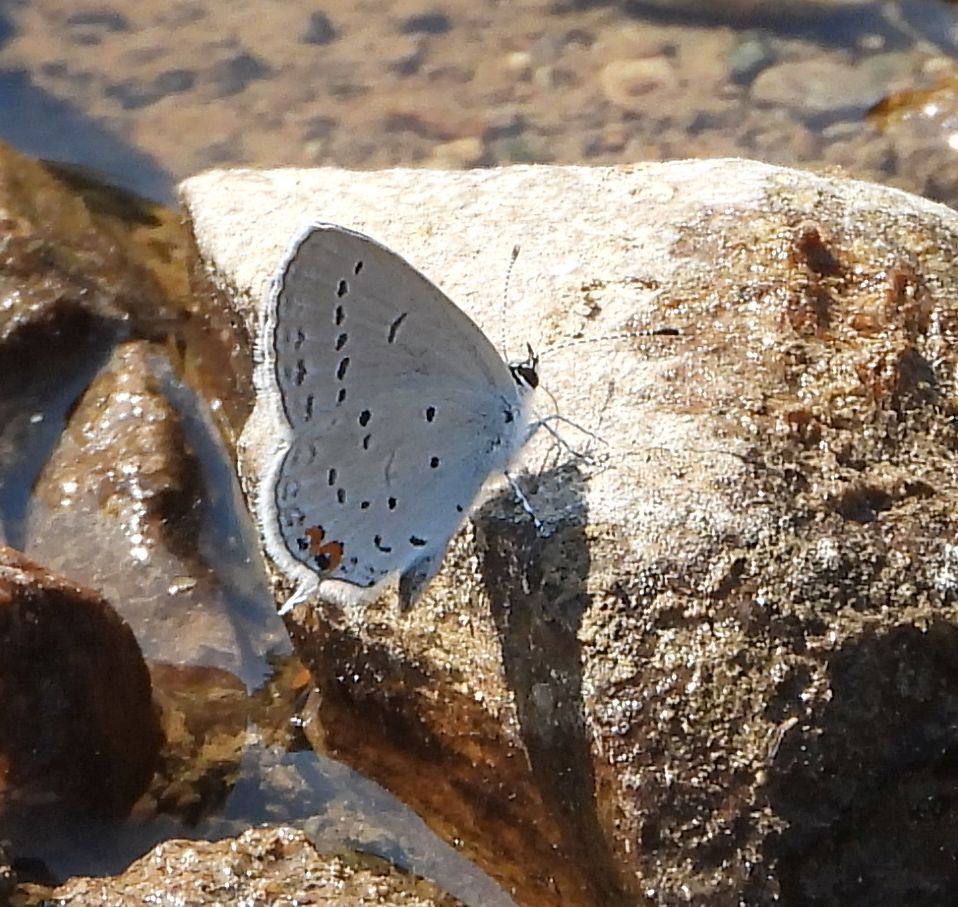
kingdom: Animalia
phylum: Arthropoda
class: Insecta
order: Lepidoptera
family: Lycaenidae
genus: Elkalyce
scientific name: Elkalyce comyntas
